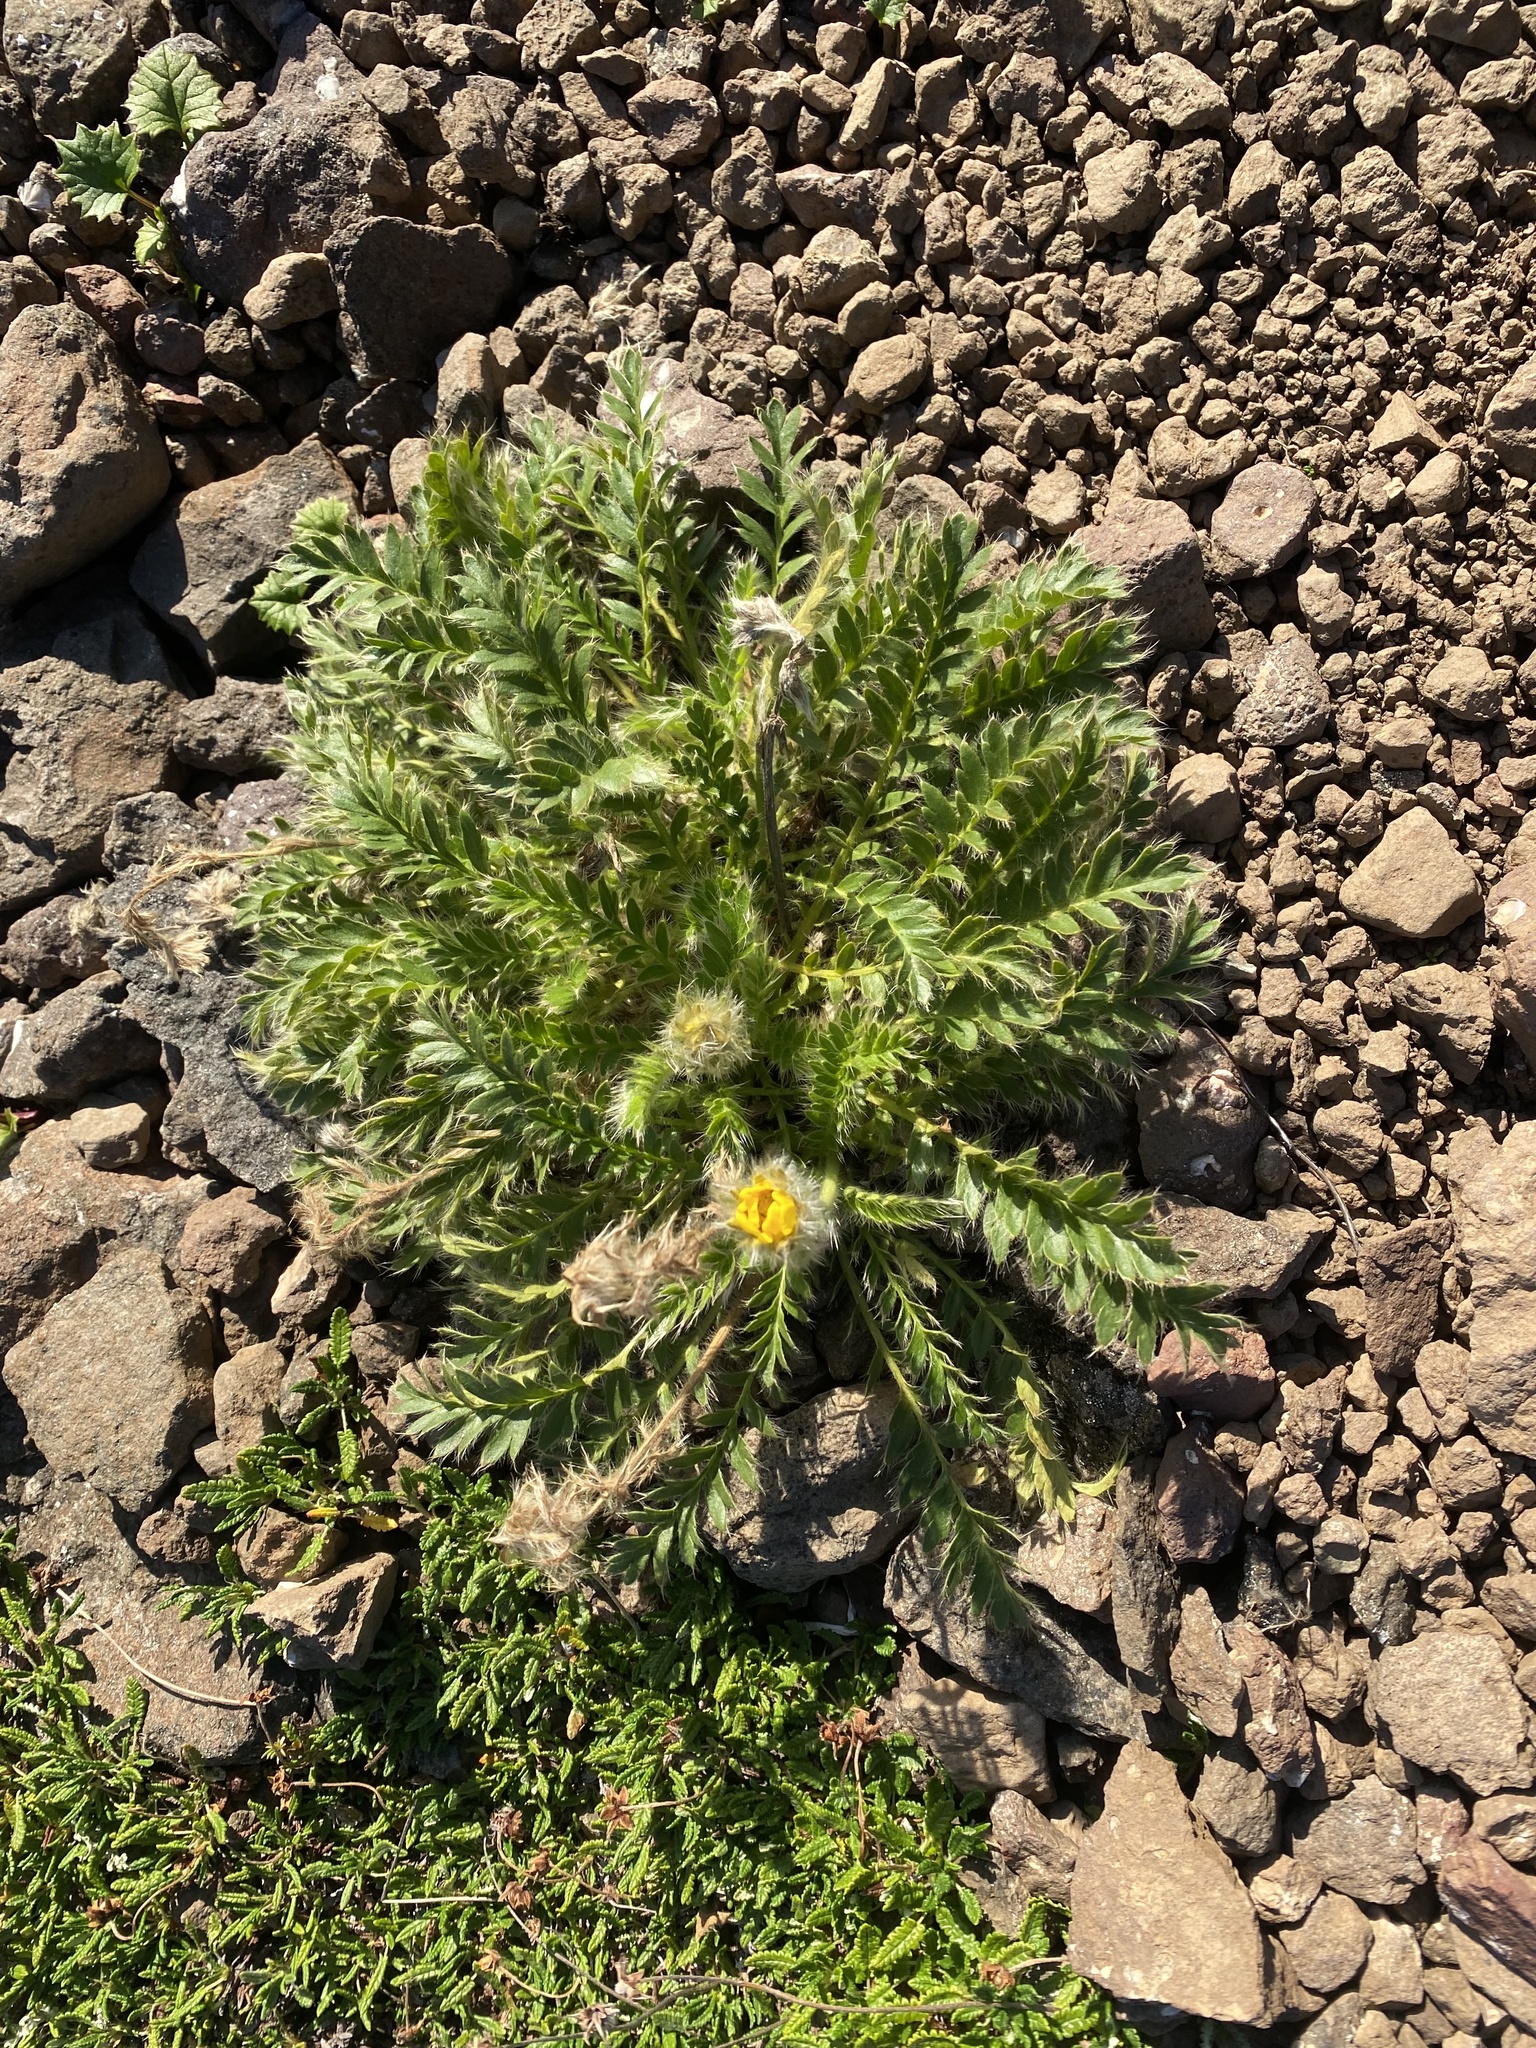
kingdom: Plantae
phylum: Tracheophyta
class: Magnoliopsida
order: Rosales
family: Rosaceae
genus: Geum
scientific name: Geum glaciale
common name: Glacier avens
